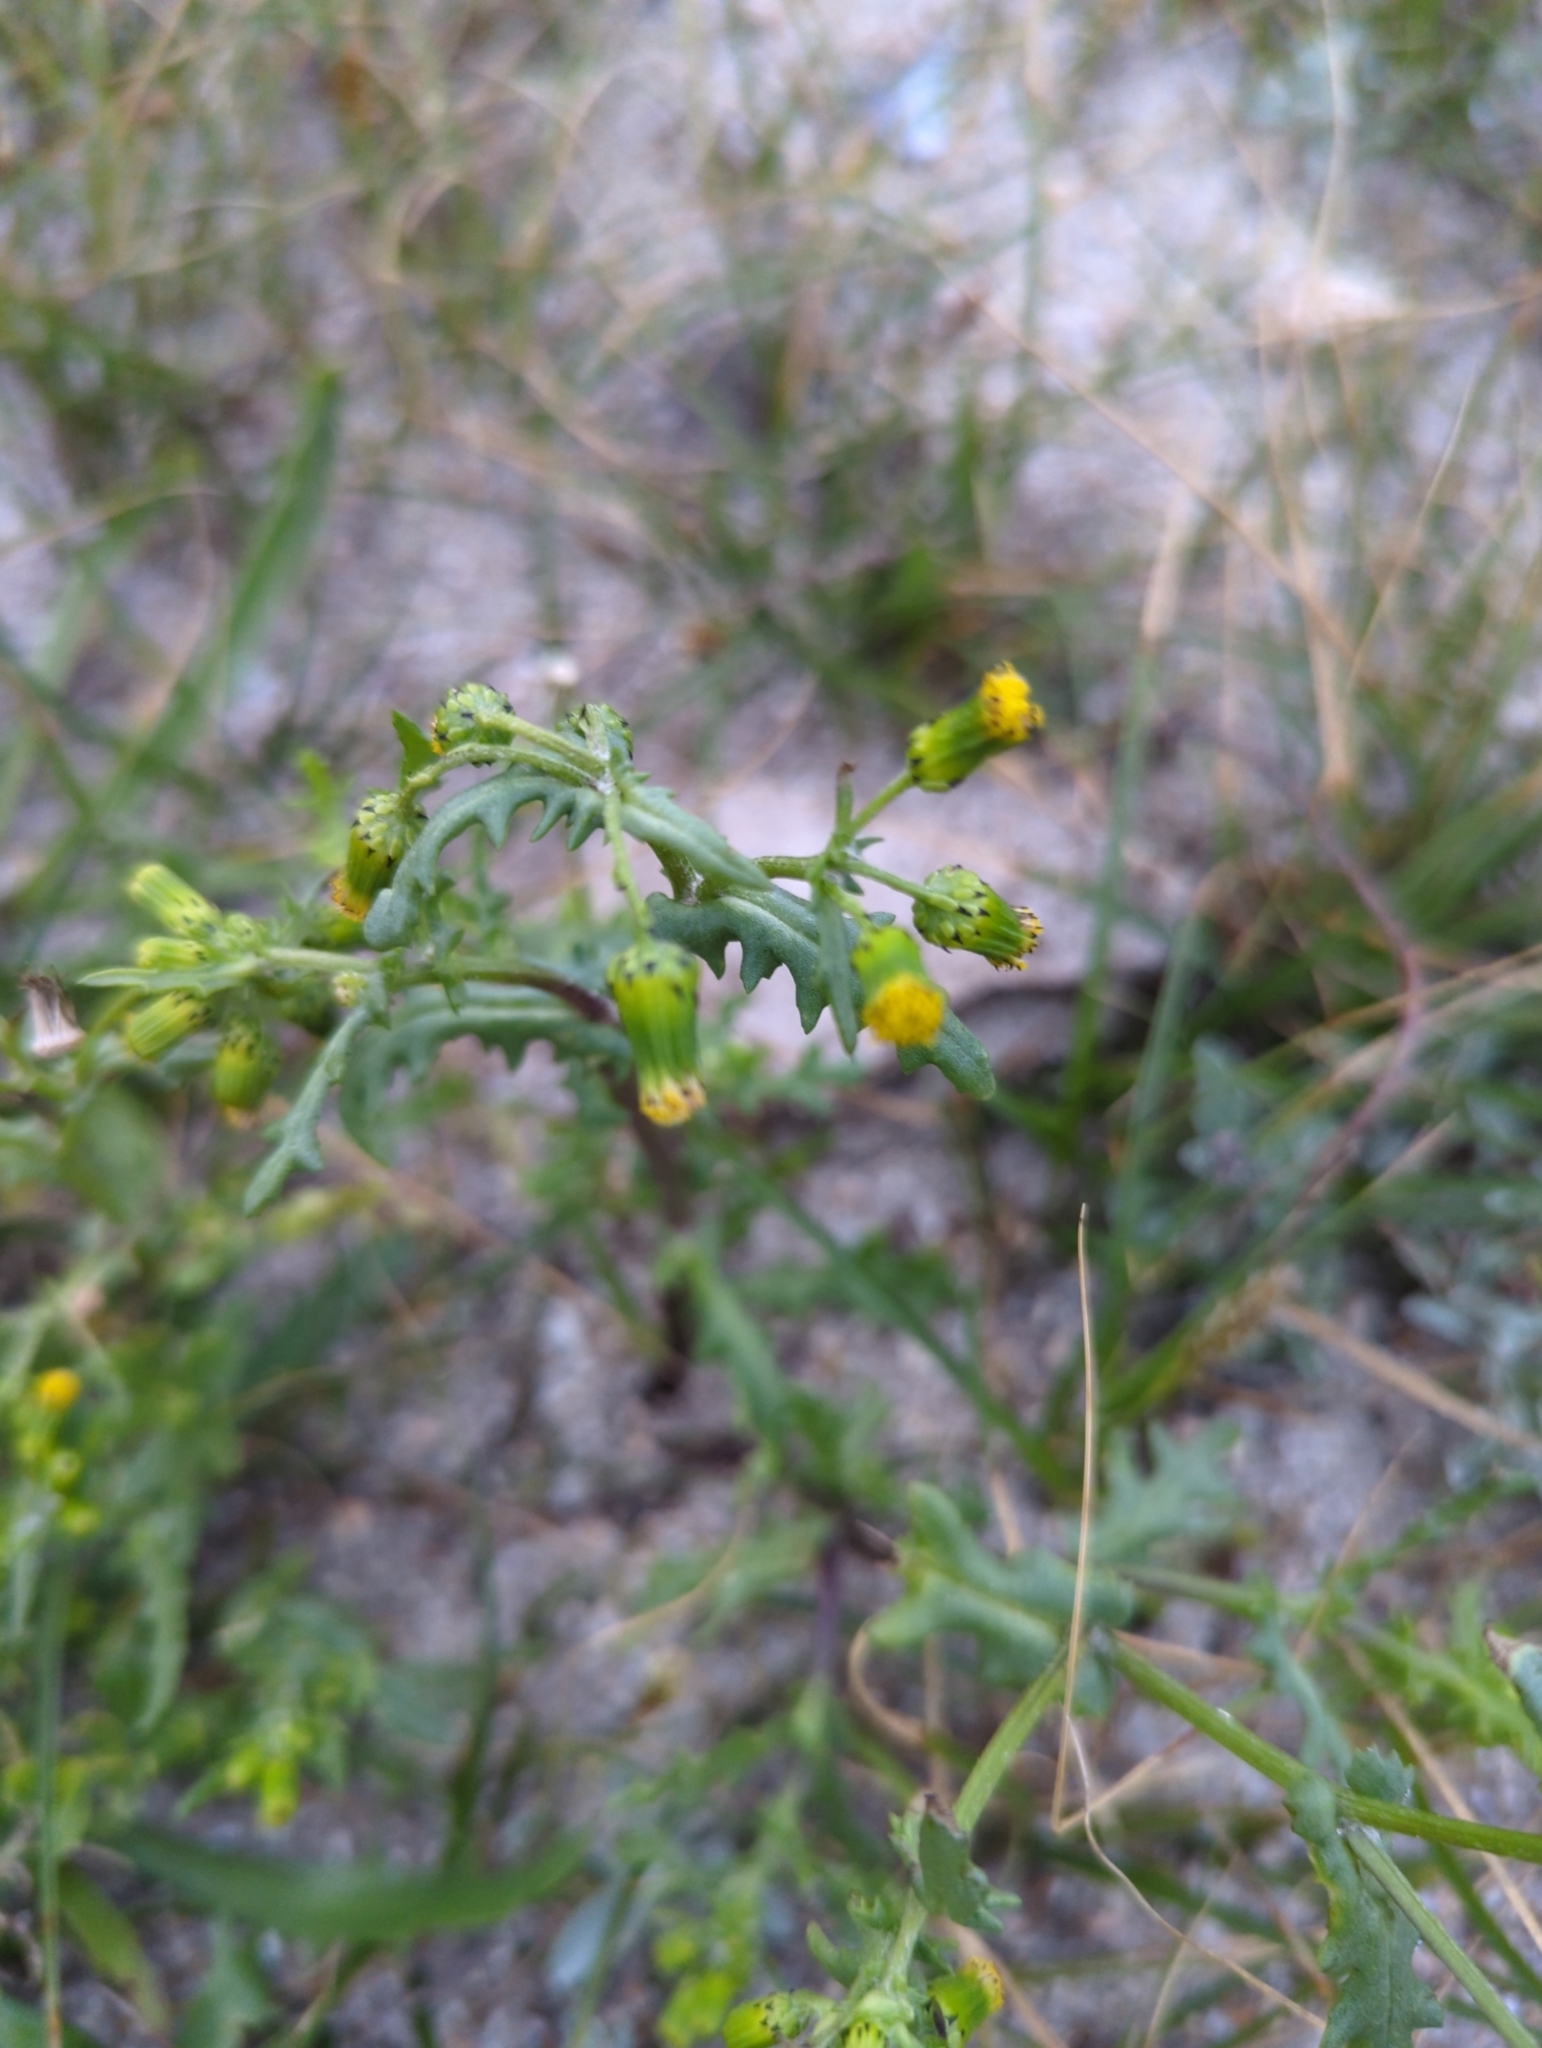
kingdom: Plantae
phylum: Tracheophyta
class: Magnoliopsida
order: Asterales
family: Asteraceae
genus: Senecio
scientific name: Senecio vulgaris
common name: Old-man-in-the-spring
